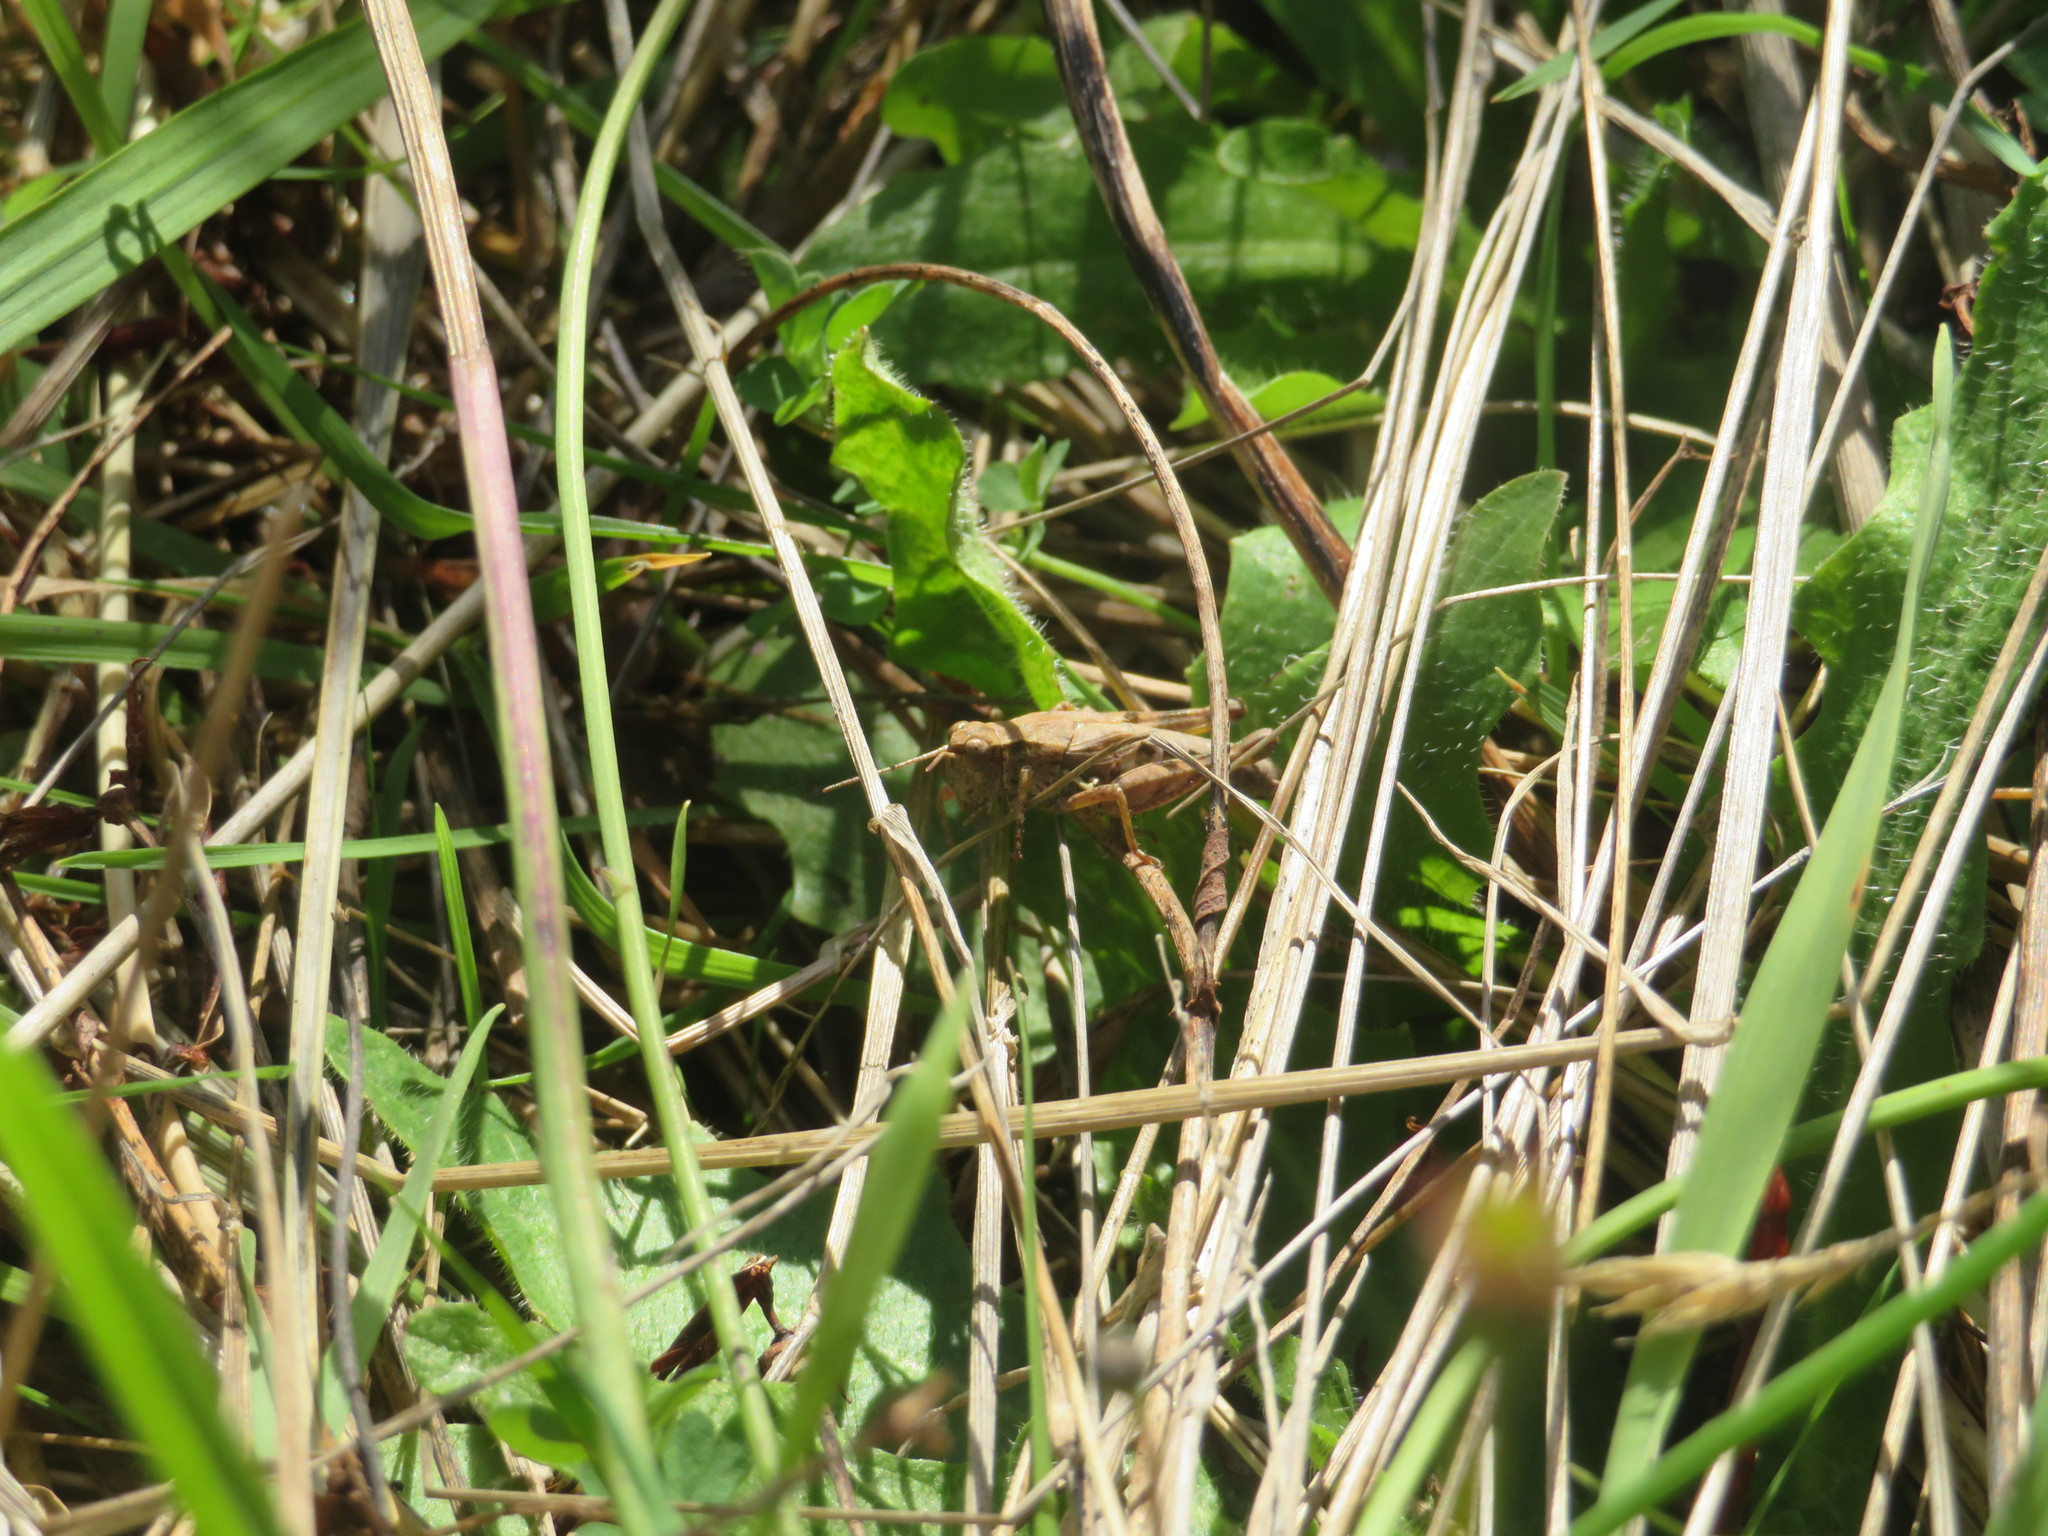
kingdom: Animalia
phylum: Arthropoda
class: Insecta
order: Orthoptera
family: Acrididae
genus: Phaulacridium
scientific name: Phaulacridium marginale
